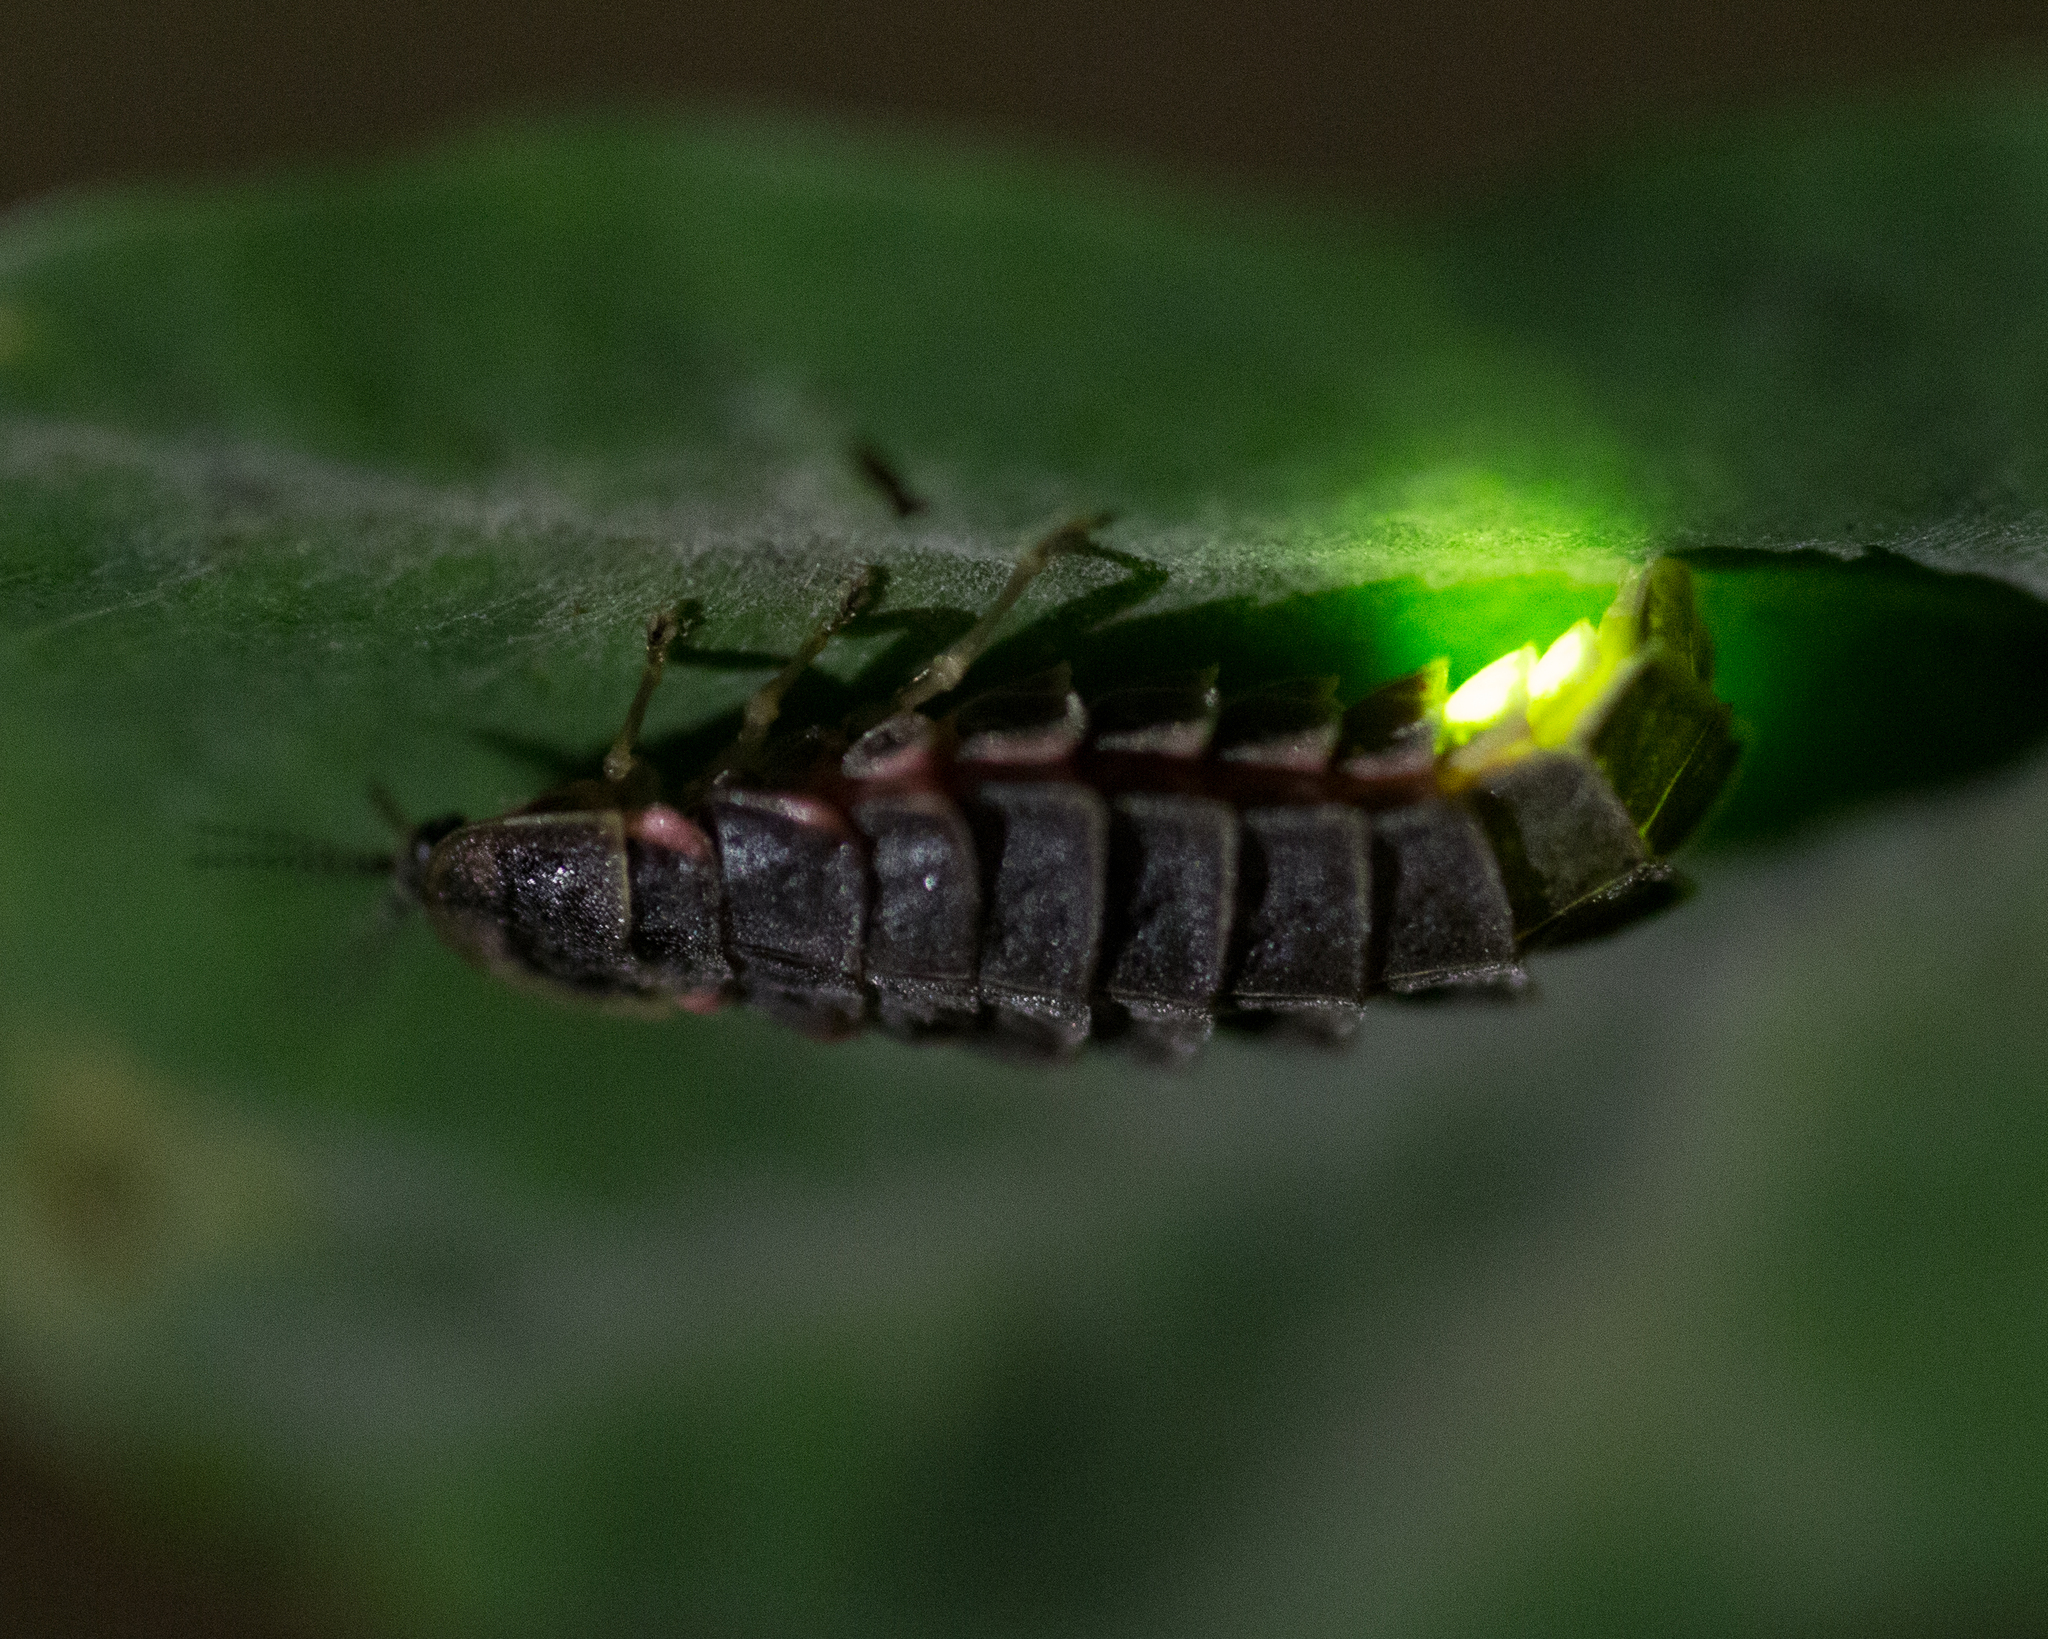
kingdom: Animalia
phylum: Arthropoda
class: Insecta
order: Coleoptera
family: Lampyridae
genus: Lampyris
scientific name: Lampyris noctiluca
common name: Glow-worm
